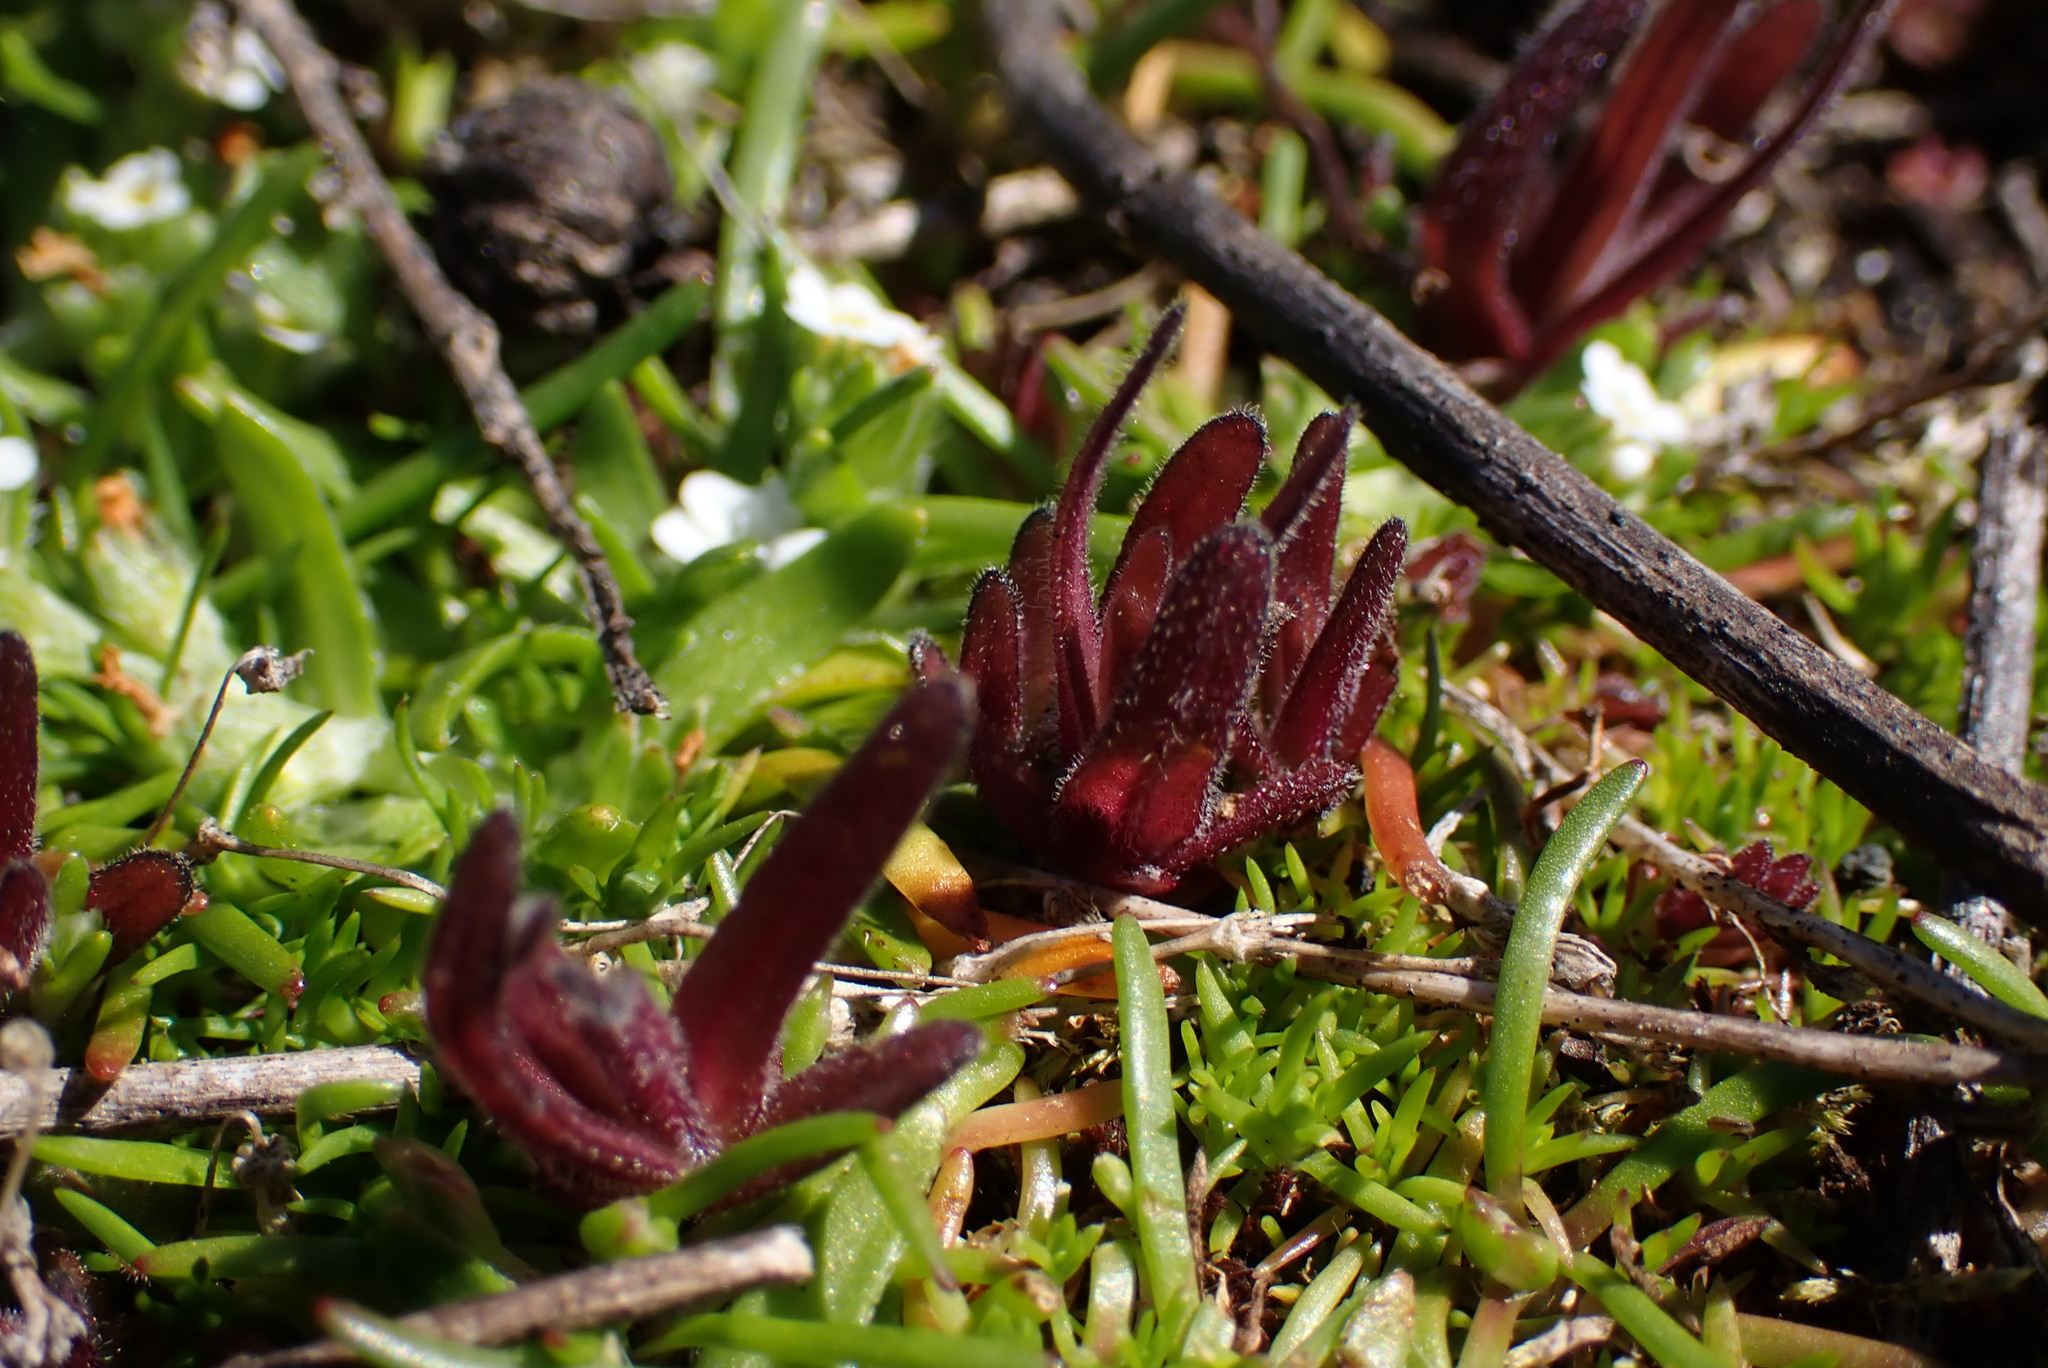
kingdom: Plantae
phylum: Tracheophyta
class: Magnoliopsida
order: Lamiales
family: Orobanchaceae
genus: Castilleja
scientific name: Castilleja victoriae
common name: Victoria paintbrush
